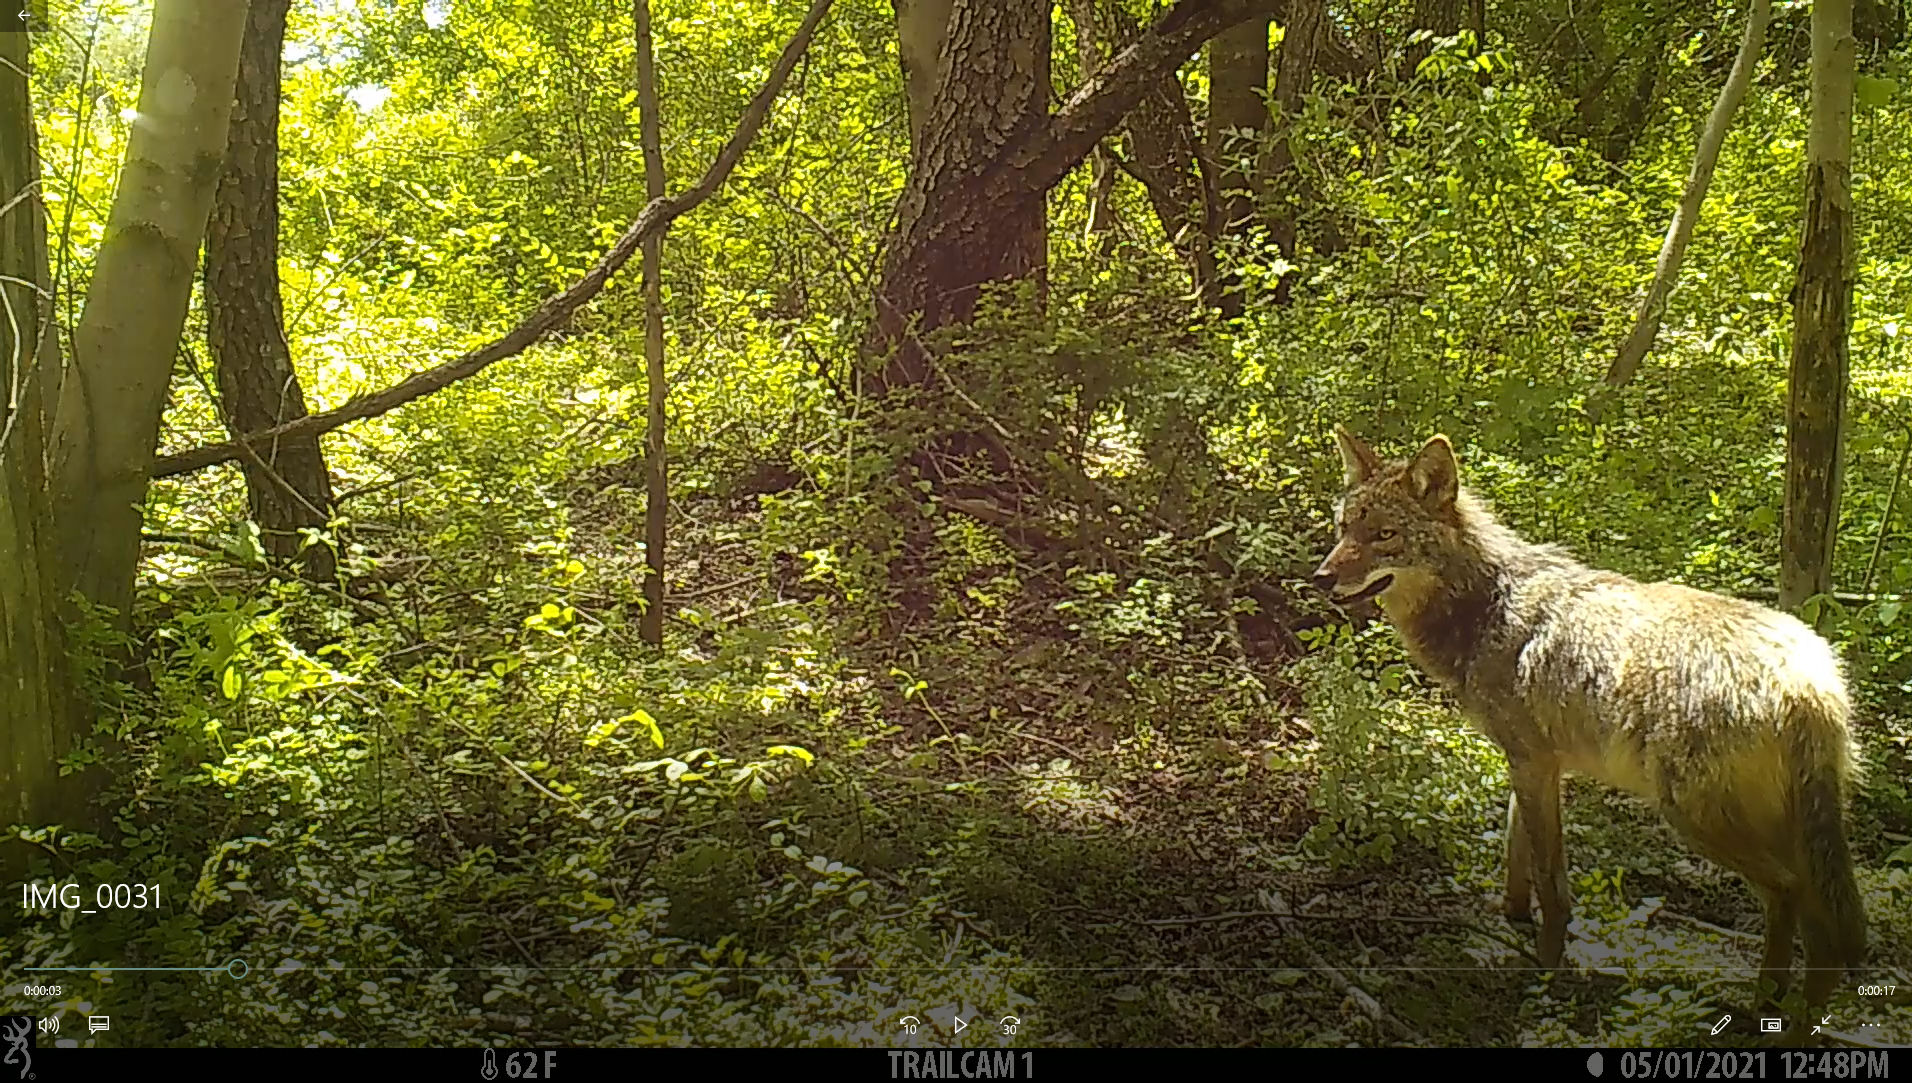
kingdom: Animalia
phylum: Chordata
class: Mammalia
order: Carnivora
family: Canidae
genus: Canis
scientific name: Canis latrans
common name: Coyote
